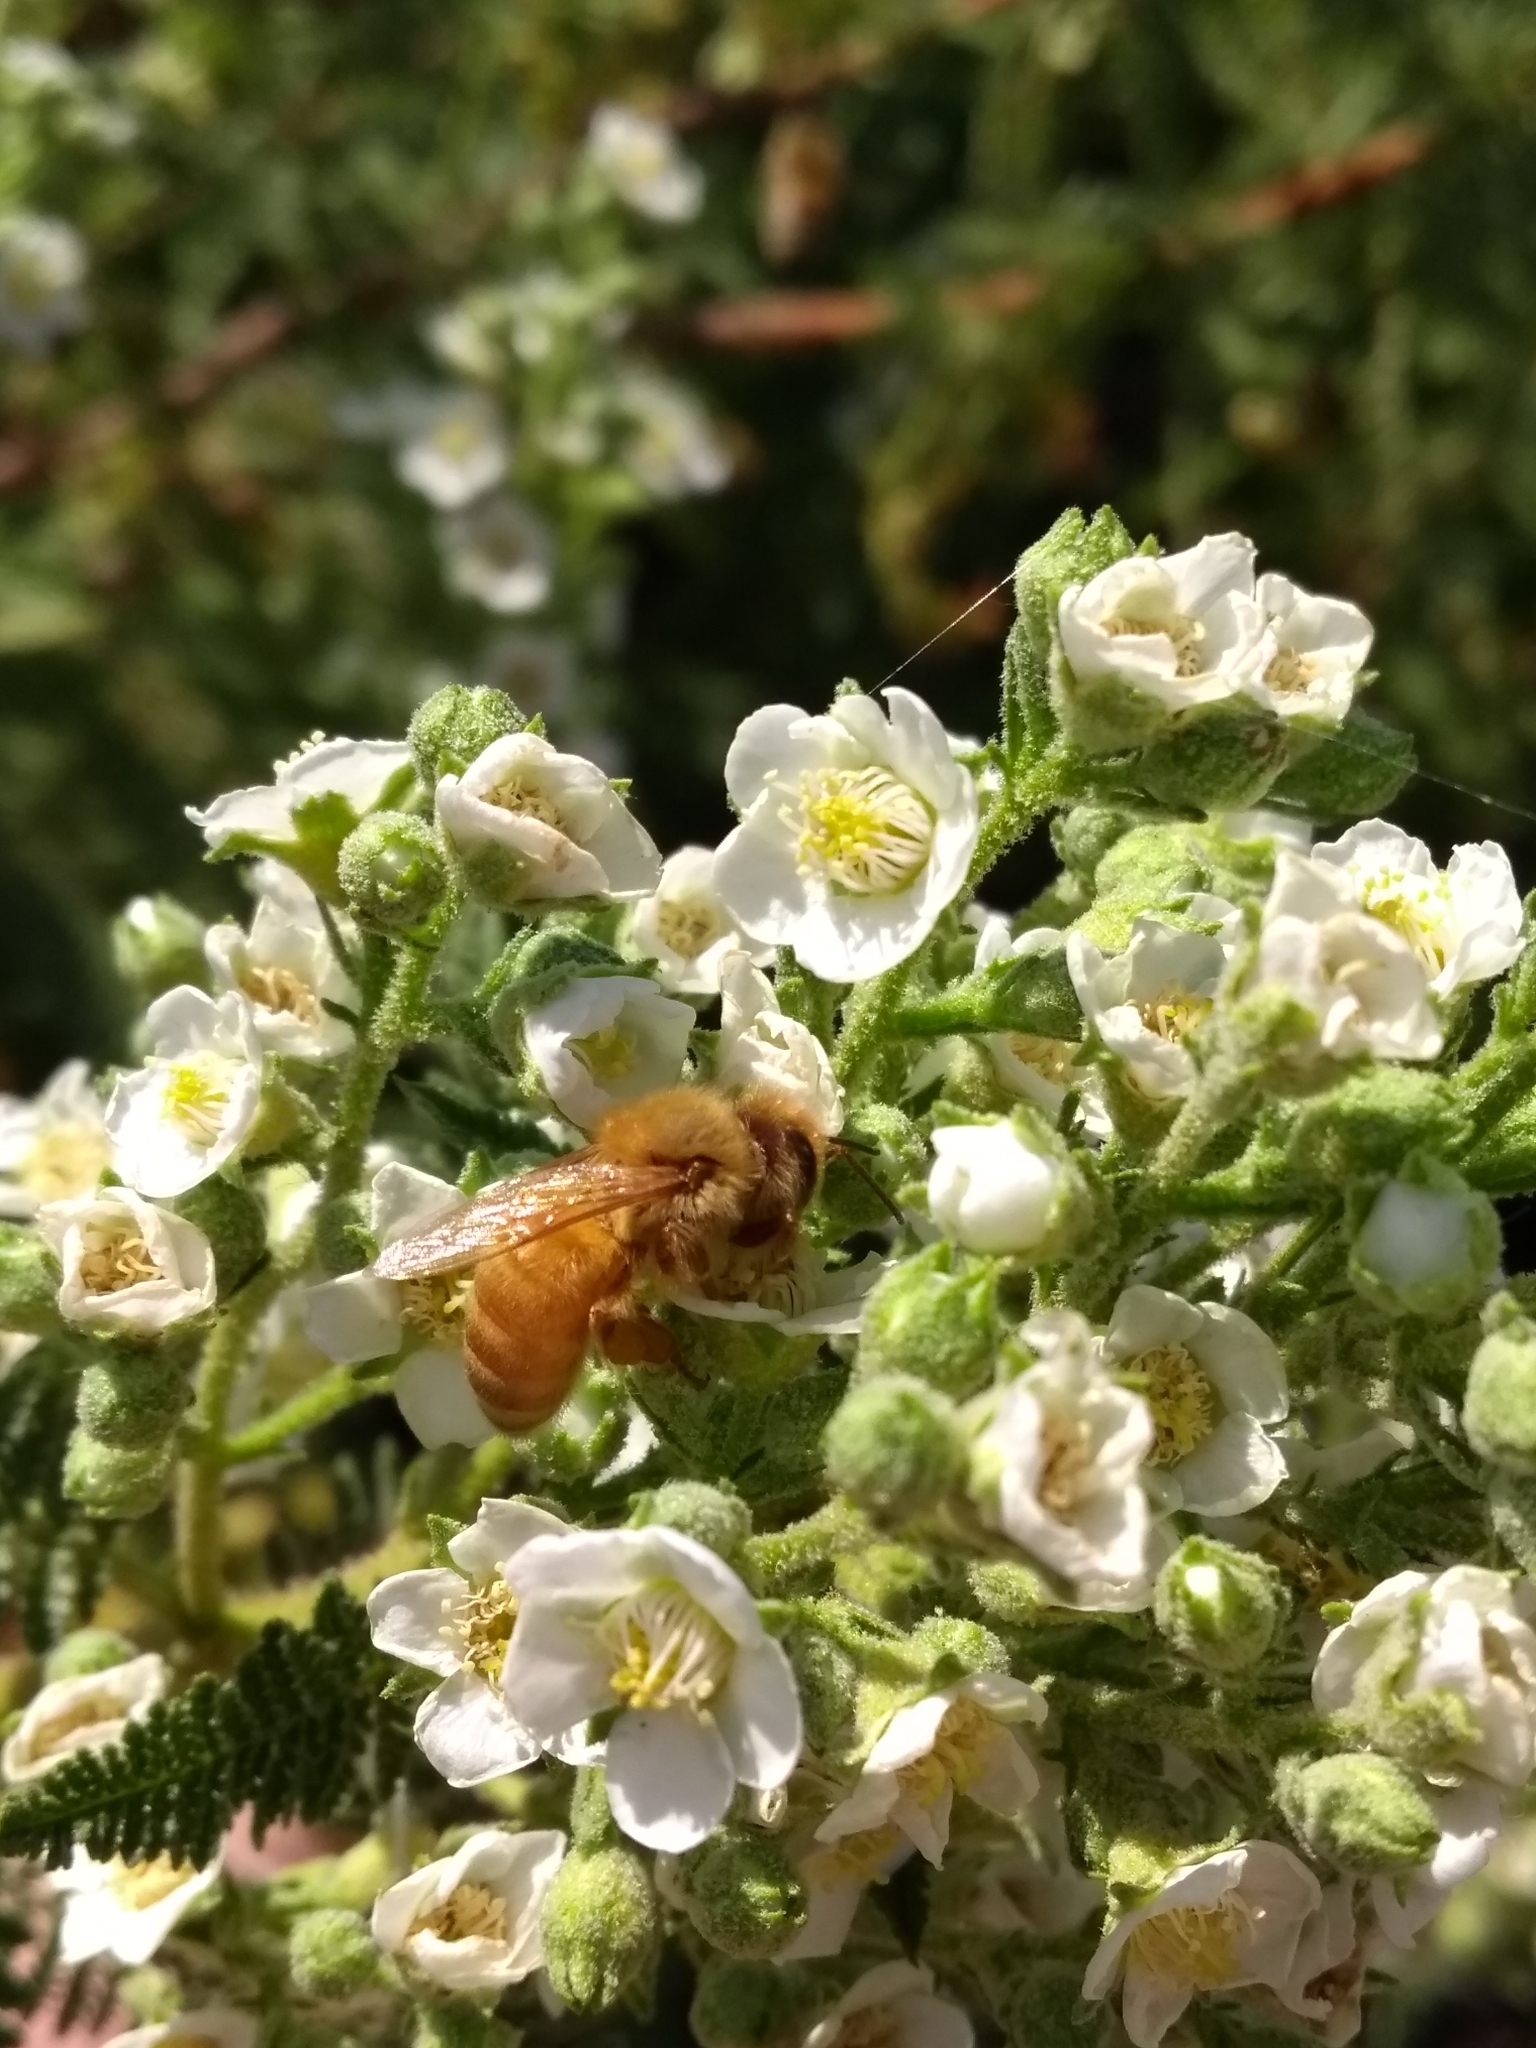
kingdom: Animalia
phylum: Arthropoda
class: Insecta
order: Hymenoptera
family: Apidae
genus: Apis
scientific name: Apis mellifera
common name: Honey bee
